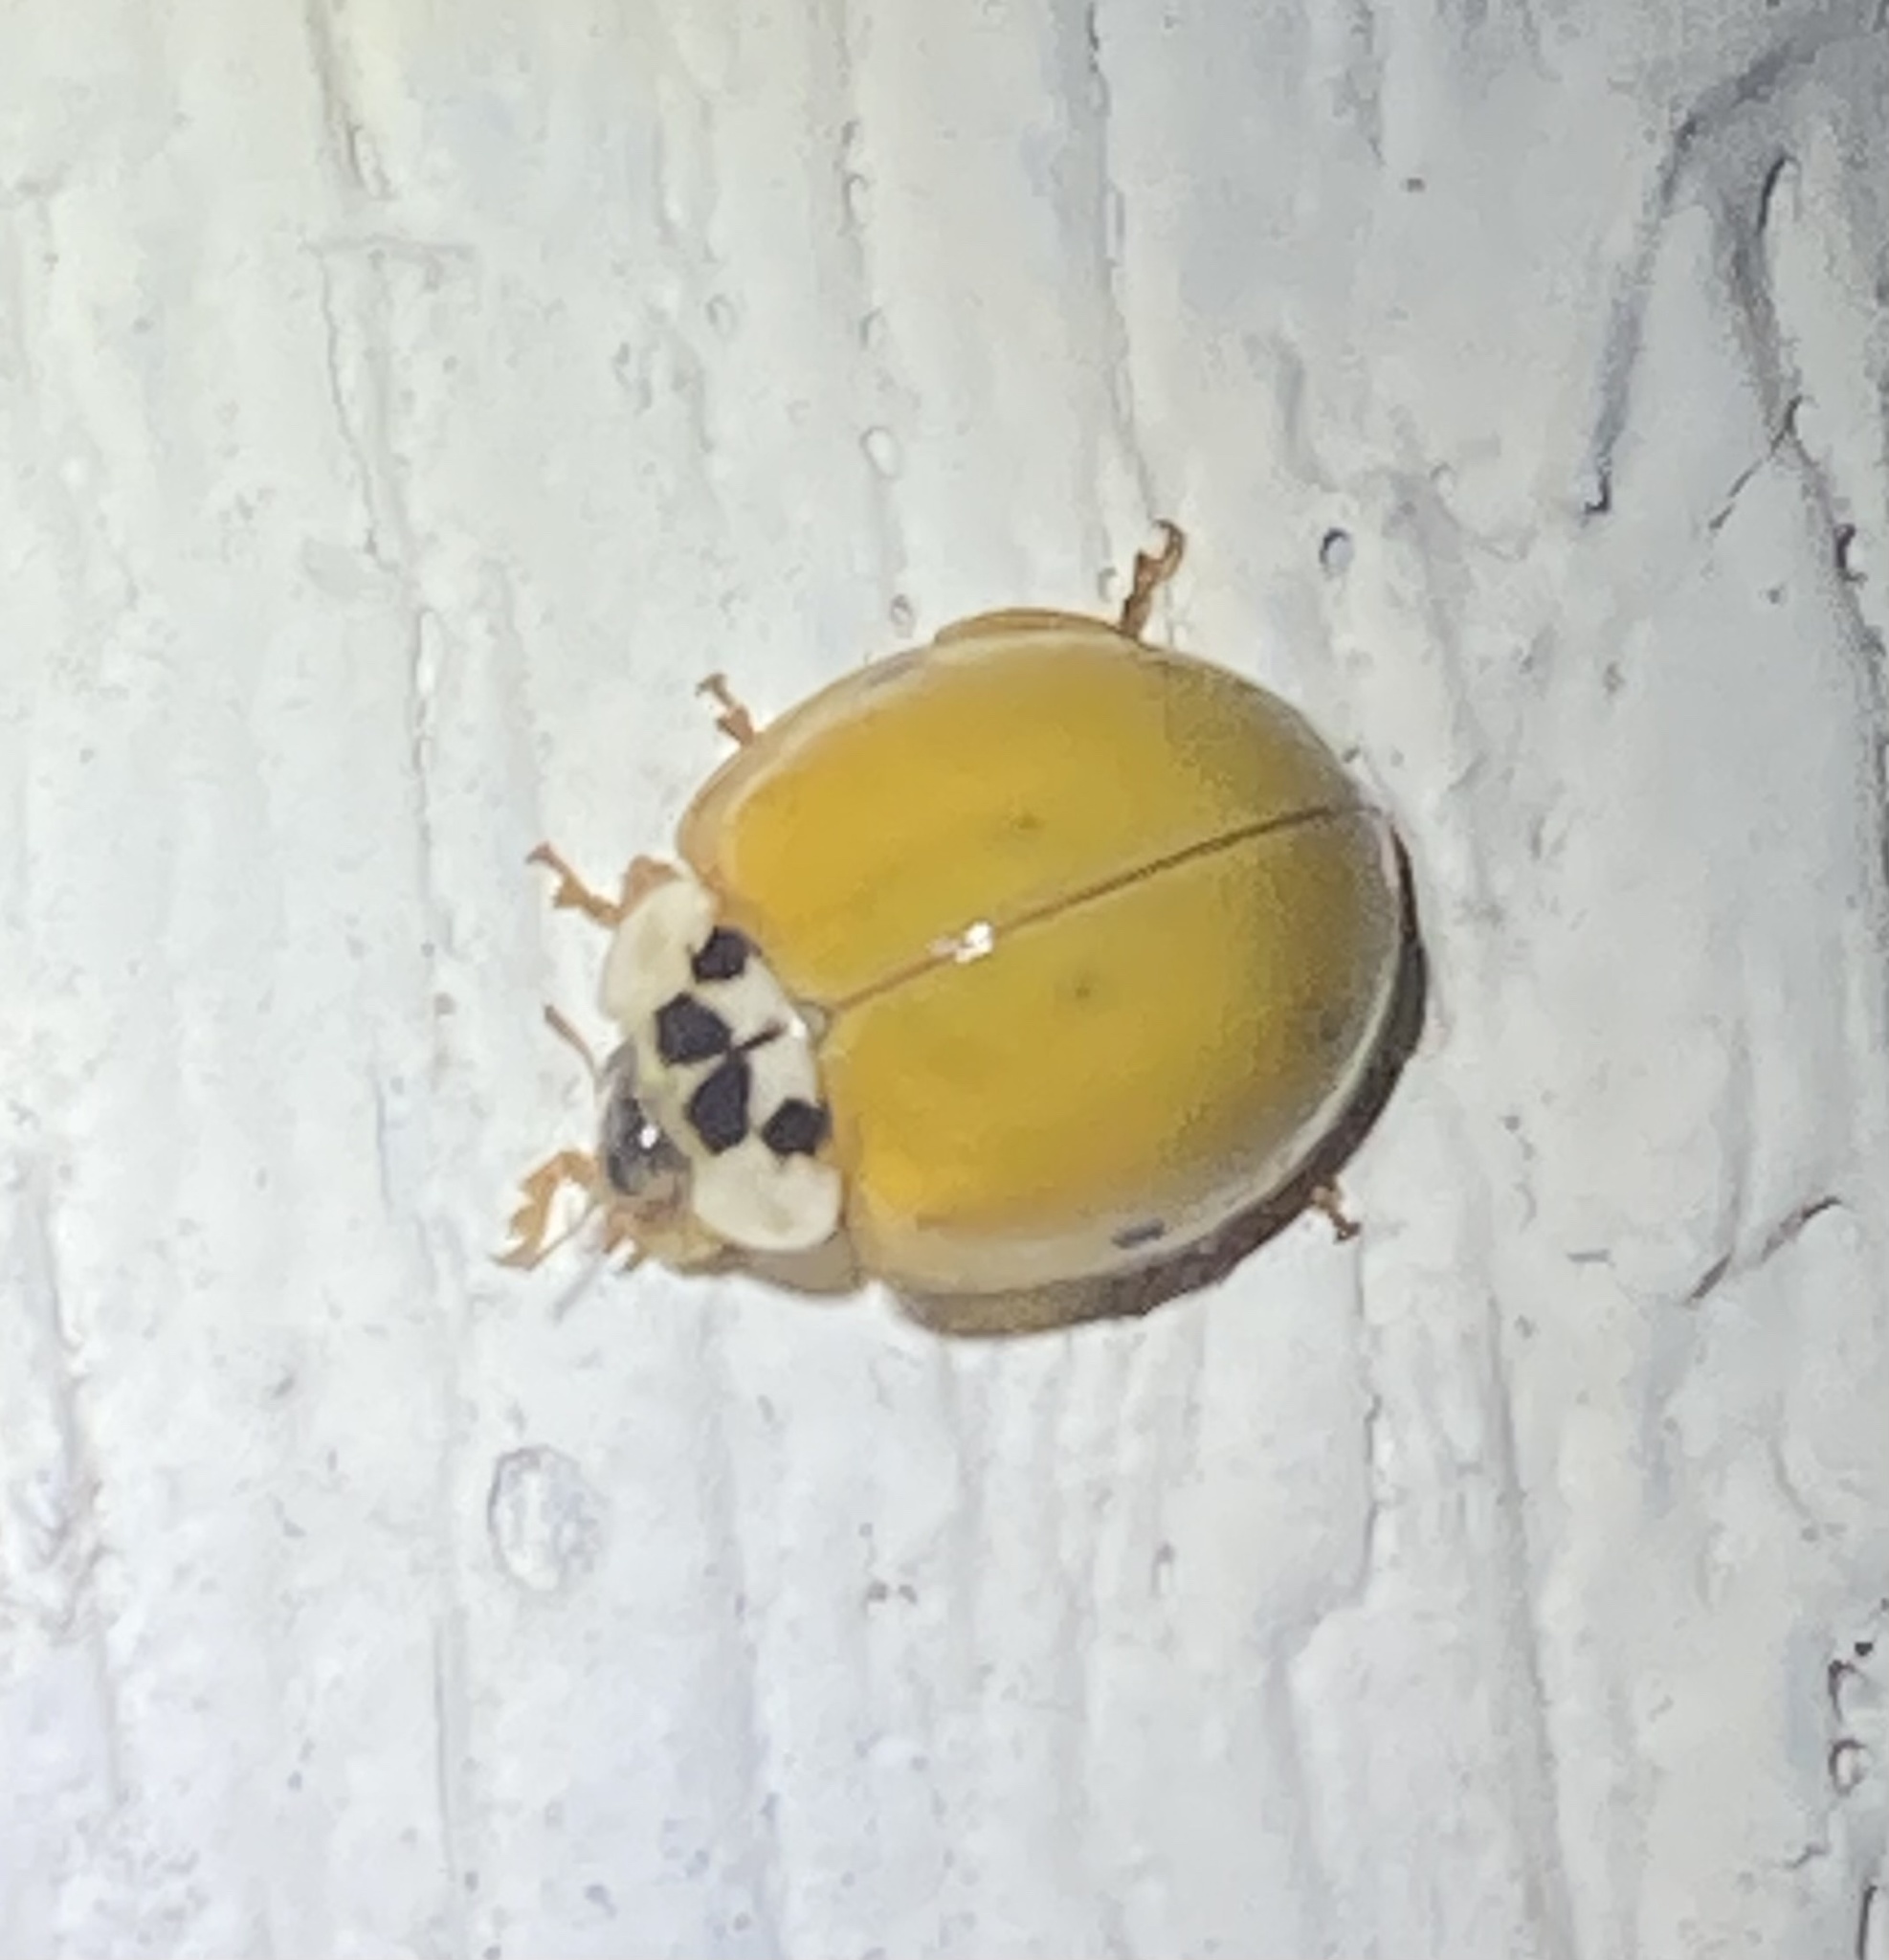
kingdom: Animalia
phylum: Arthropoda
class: Insecta
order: Coleoptera
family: Coccinellidae
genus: Harmonia
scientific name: Harmonia axyridis
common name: Harlequin ladybird
